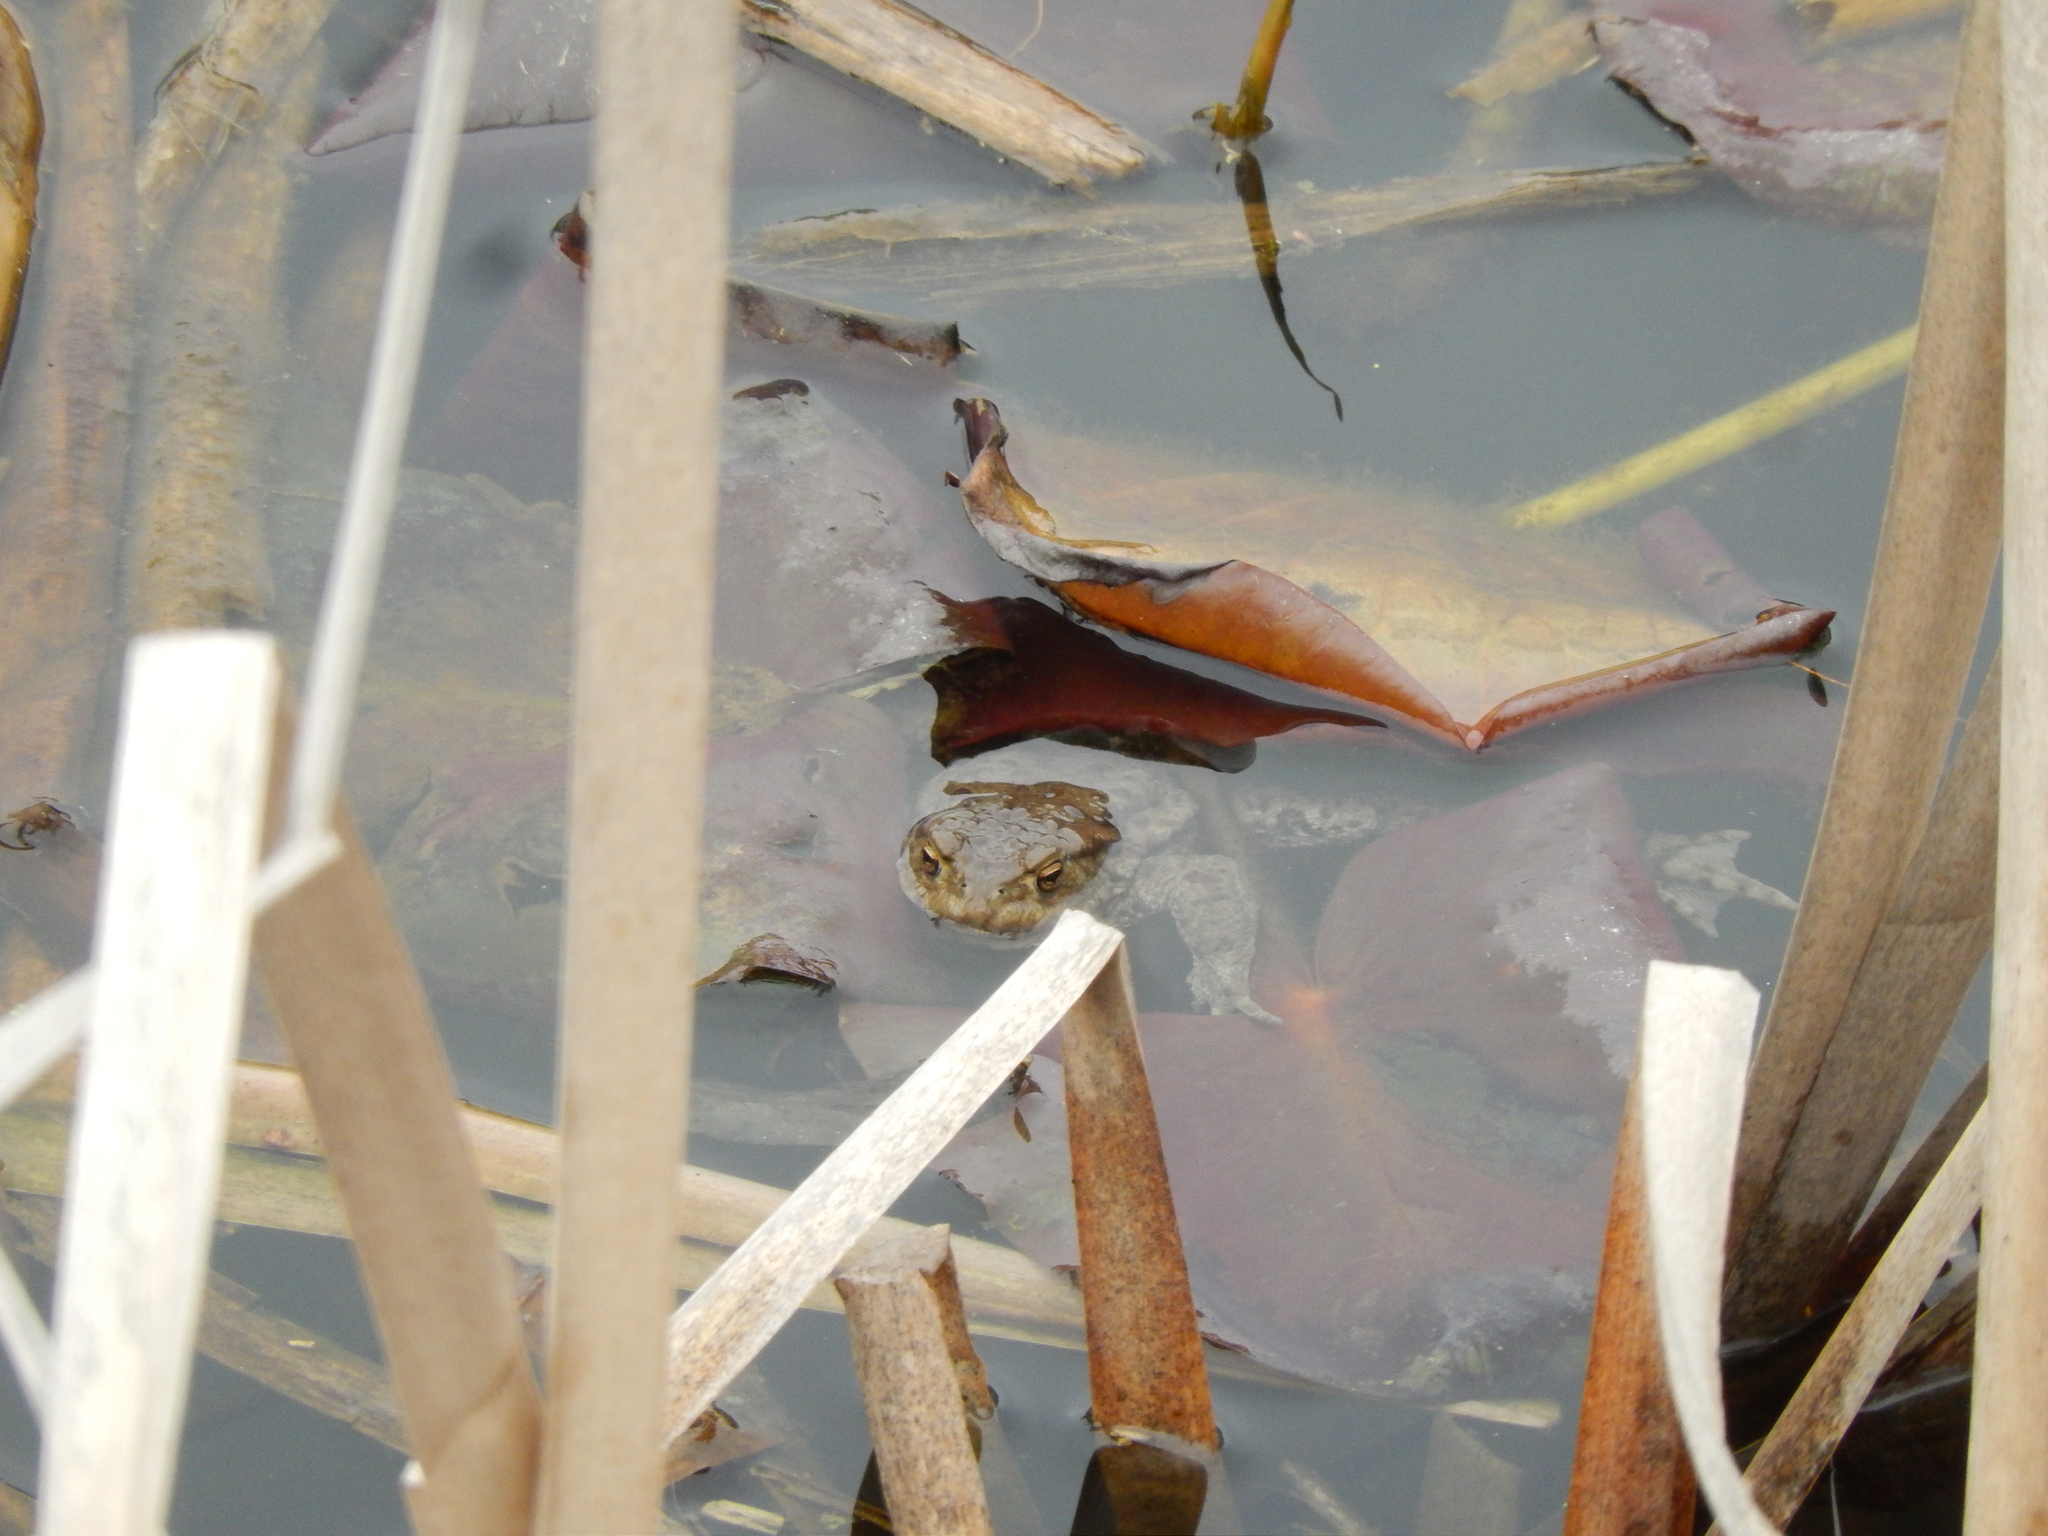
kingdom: Animalia
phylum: Chordata
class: Amphibia
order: Anura
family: Bufonidae
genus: Bufo
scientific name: Bufo bufo
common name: Common toad
